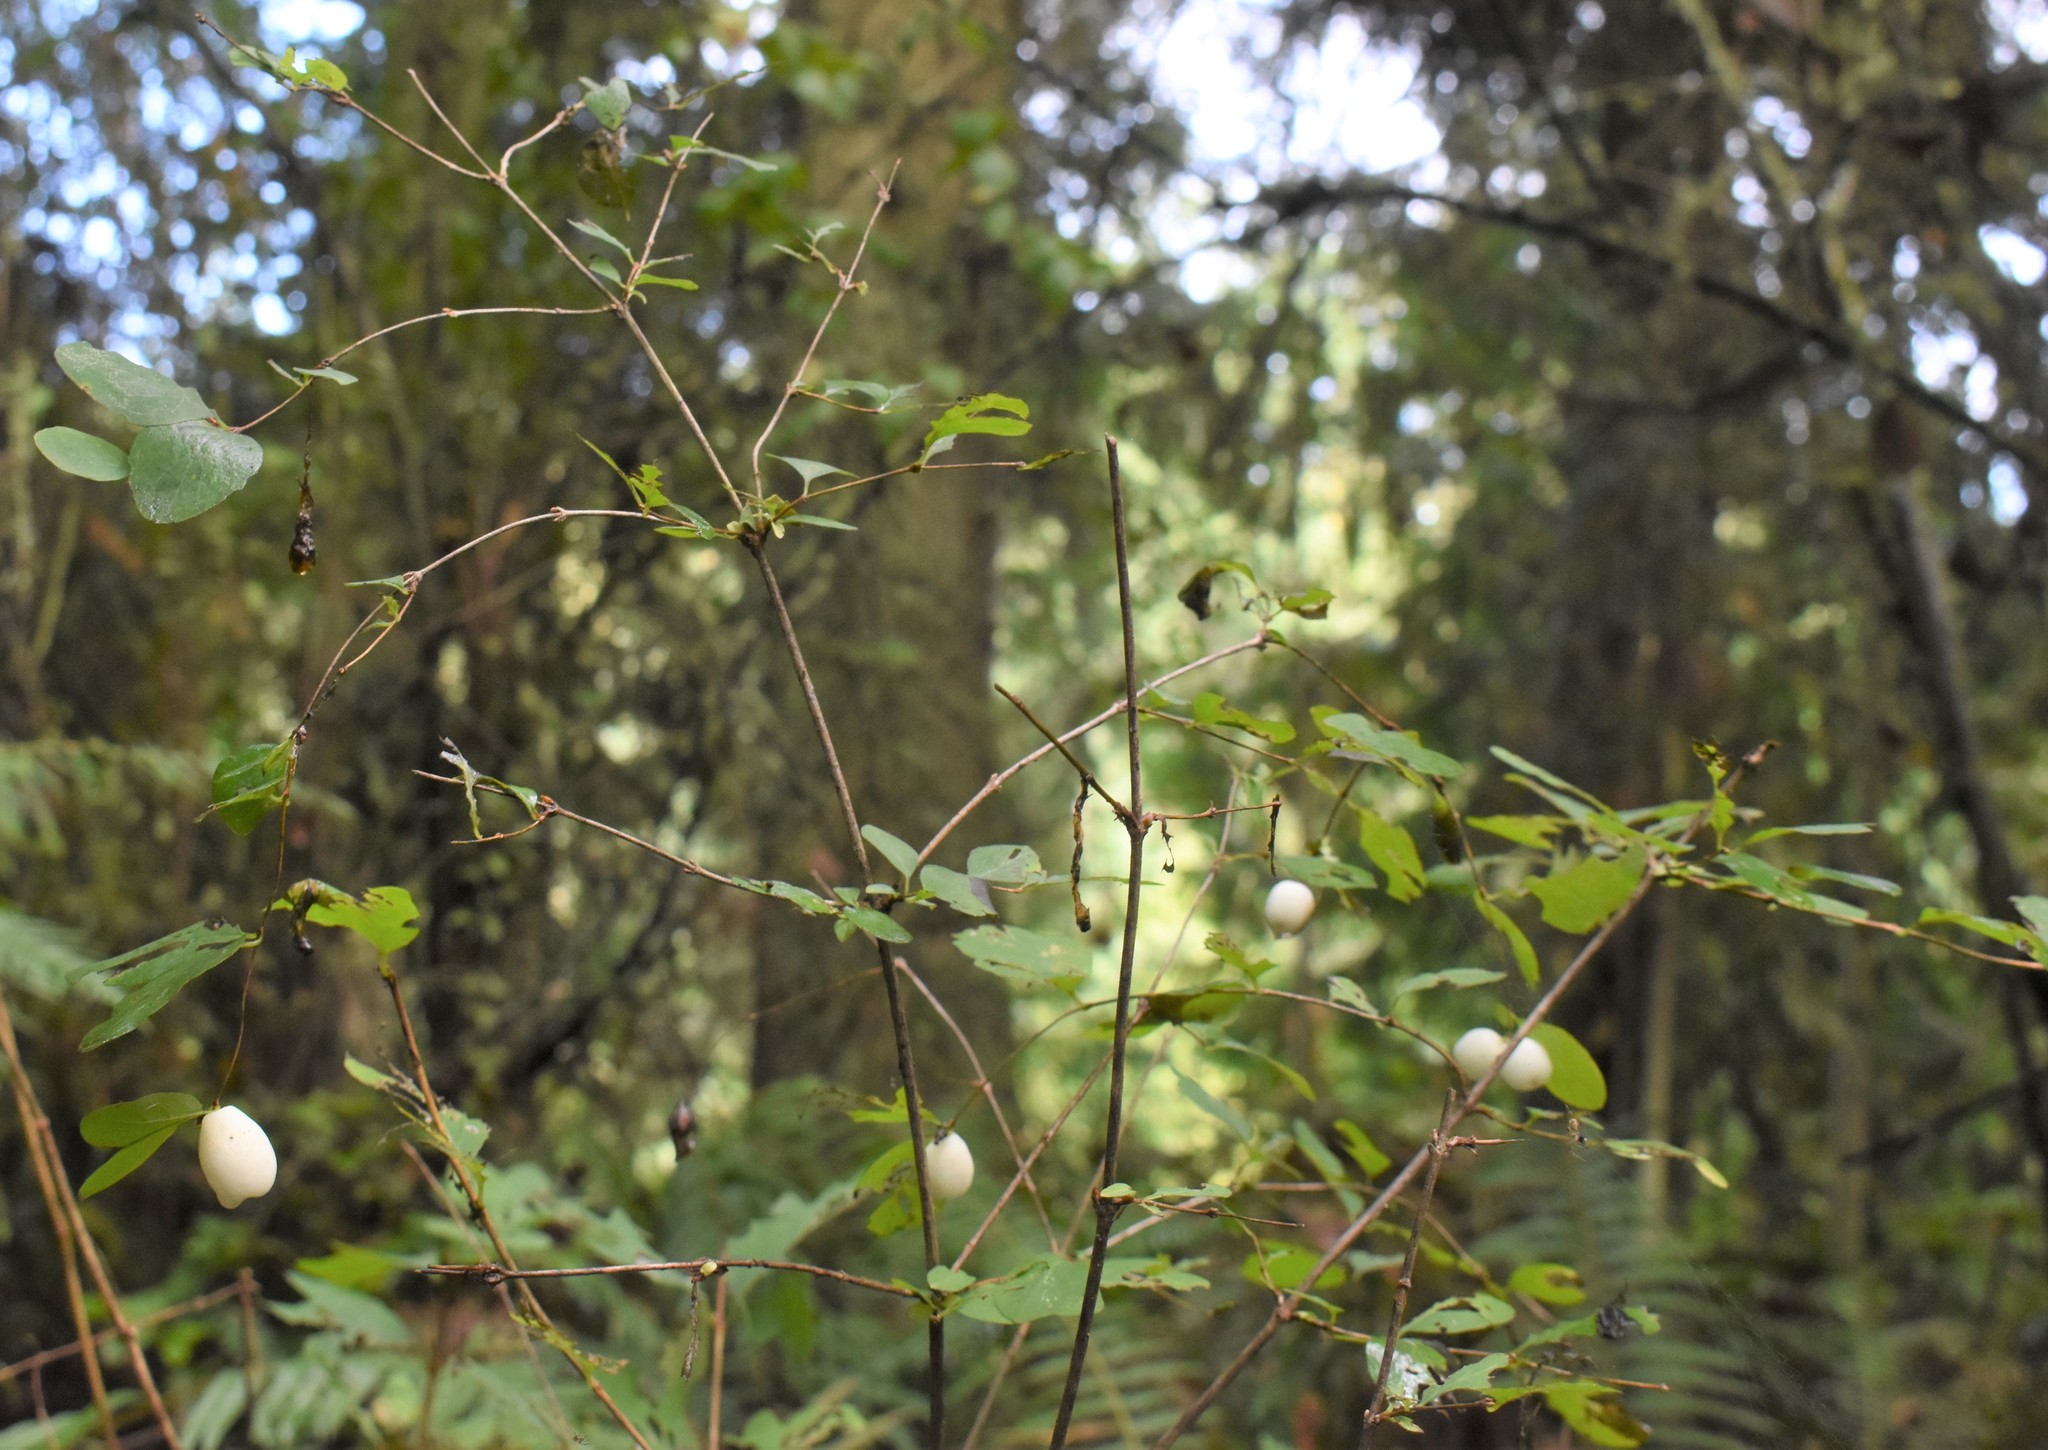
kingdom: Plantae
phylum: Tracheophyta
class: Magnoliopsida
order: Dipsacales
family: Caprifoliaceae
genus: Symphoricarpos
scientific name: Symphoricarpos albus
